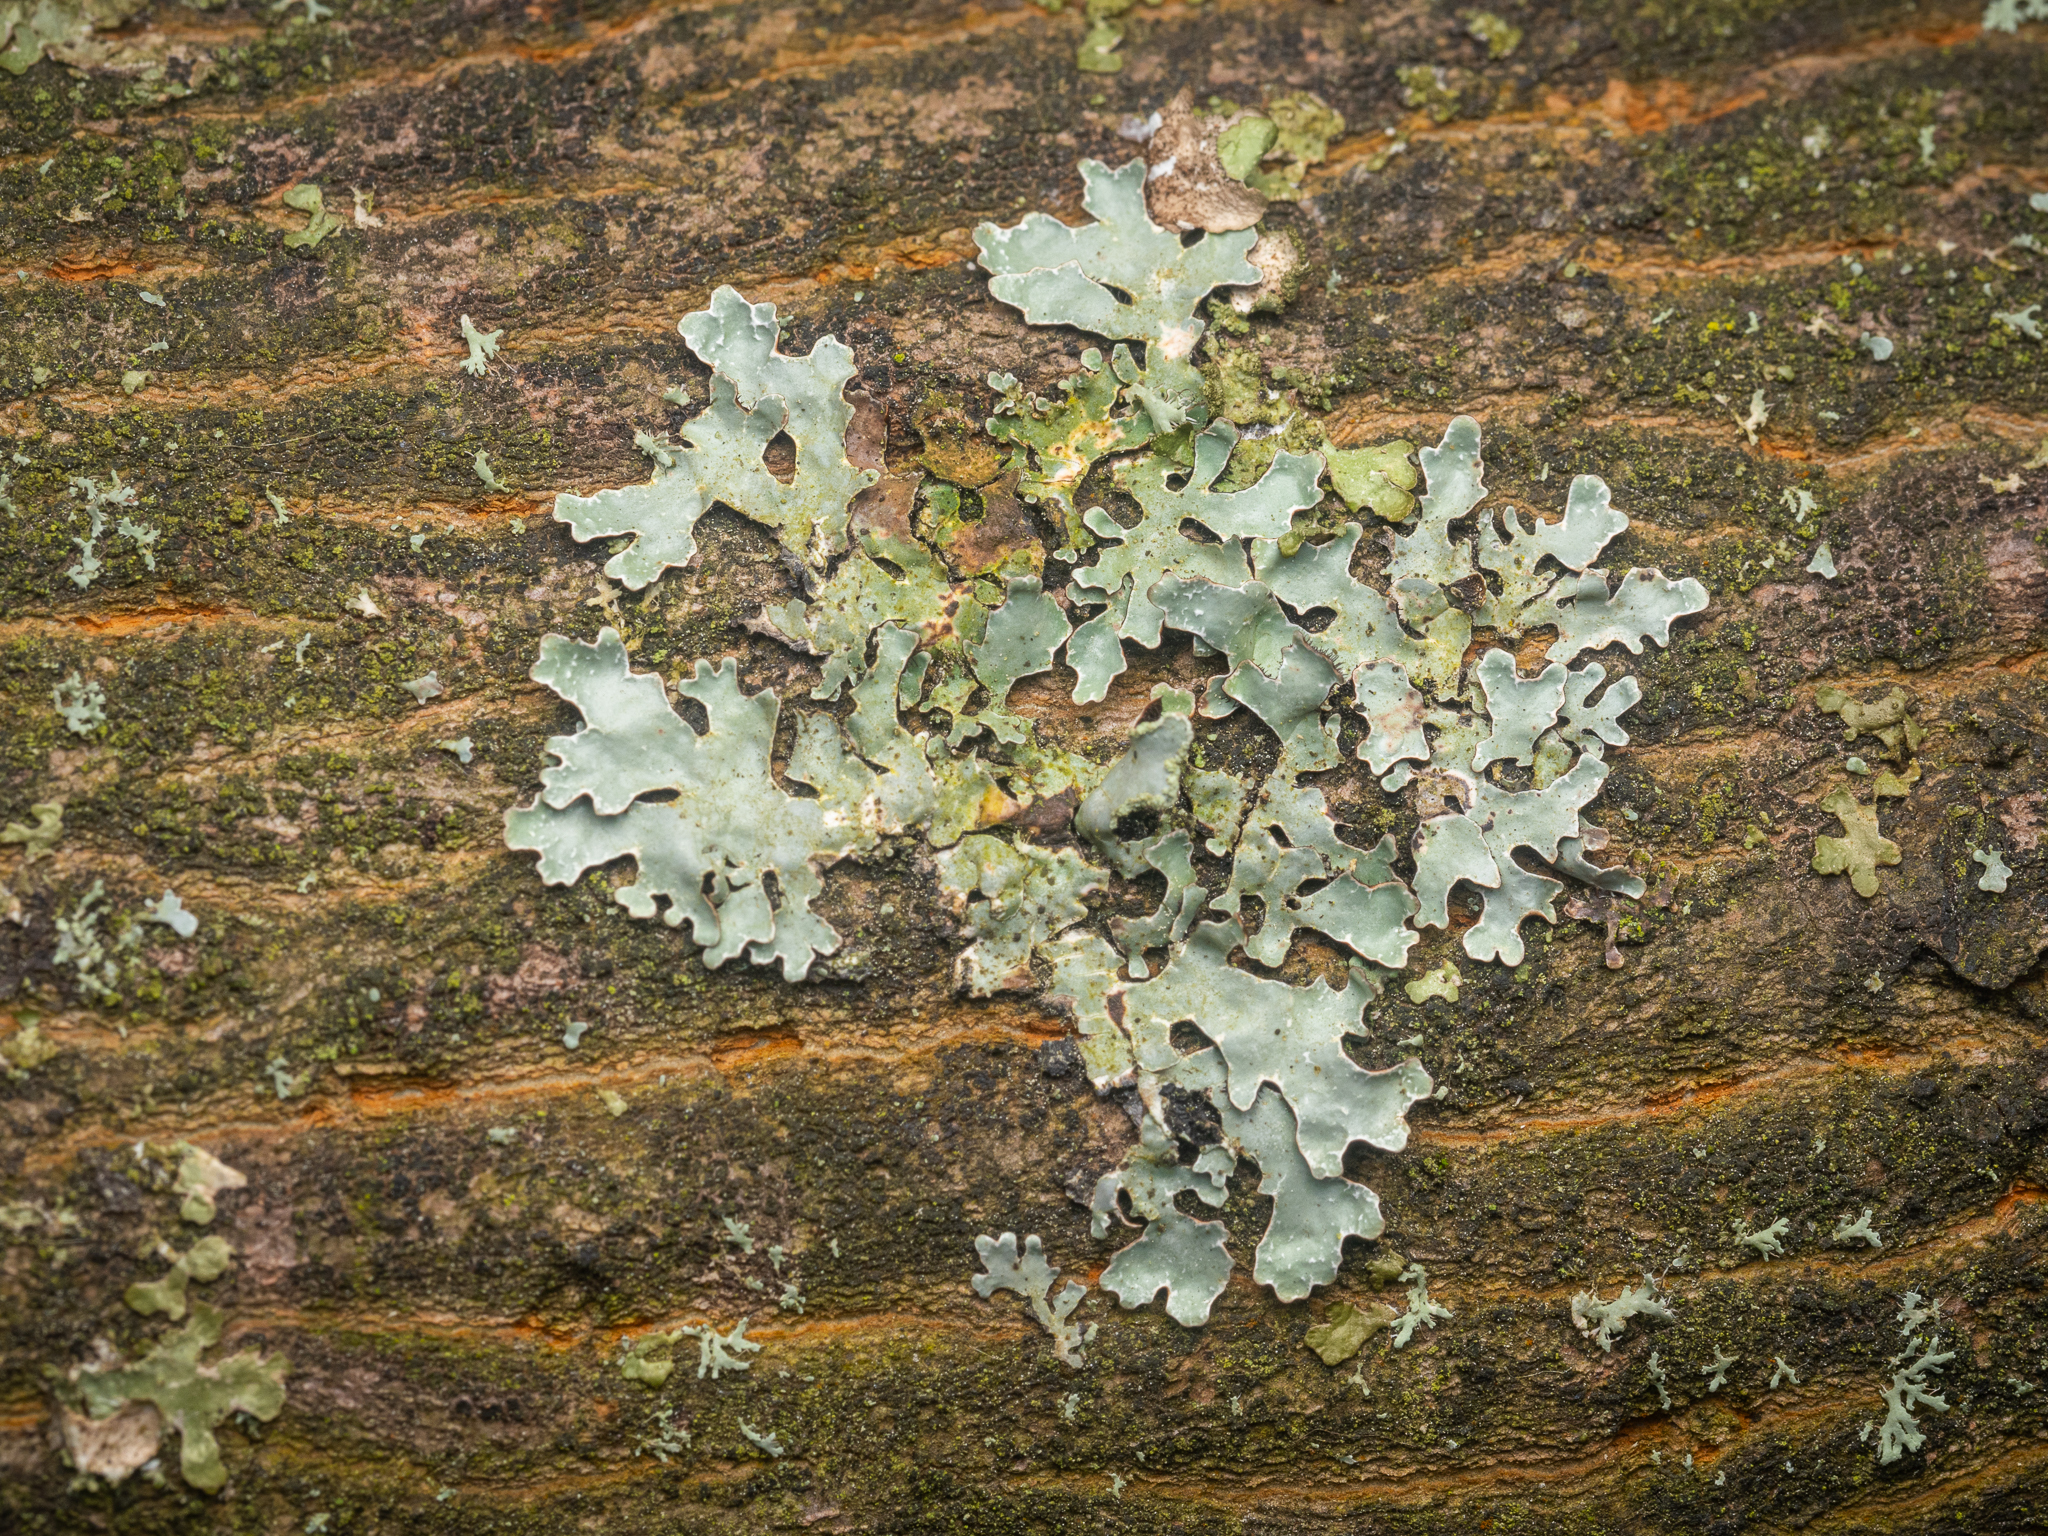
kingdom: Fungi
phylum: Ascomycota
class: Lecanoromycetes
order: Lecanorales
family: Parmeliaceae
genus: Parmelia
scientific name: Parmelia sulcata
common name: Netted shield lichen
